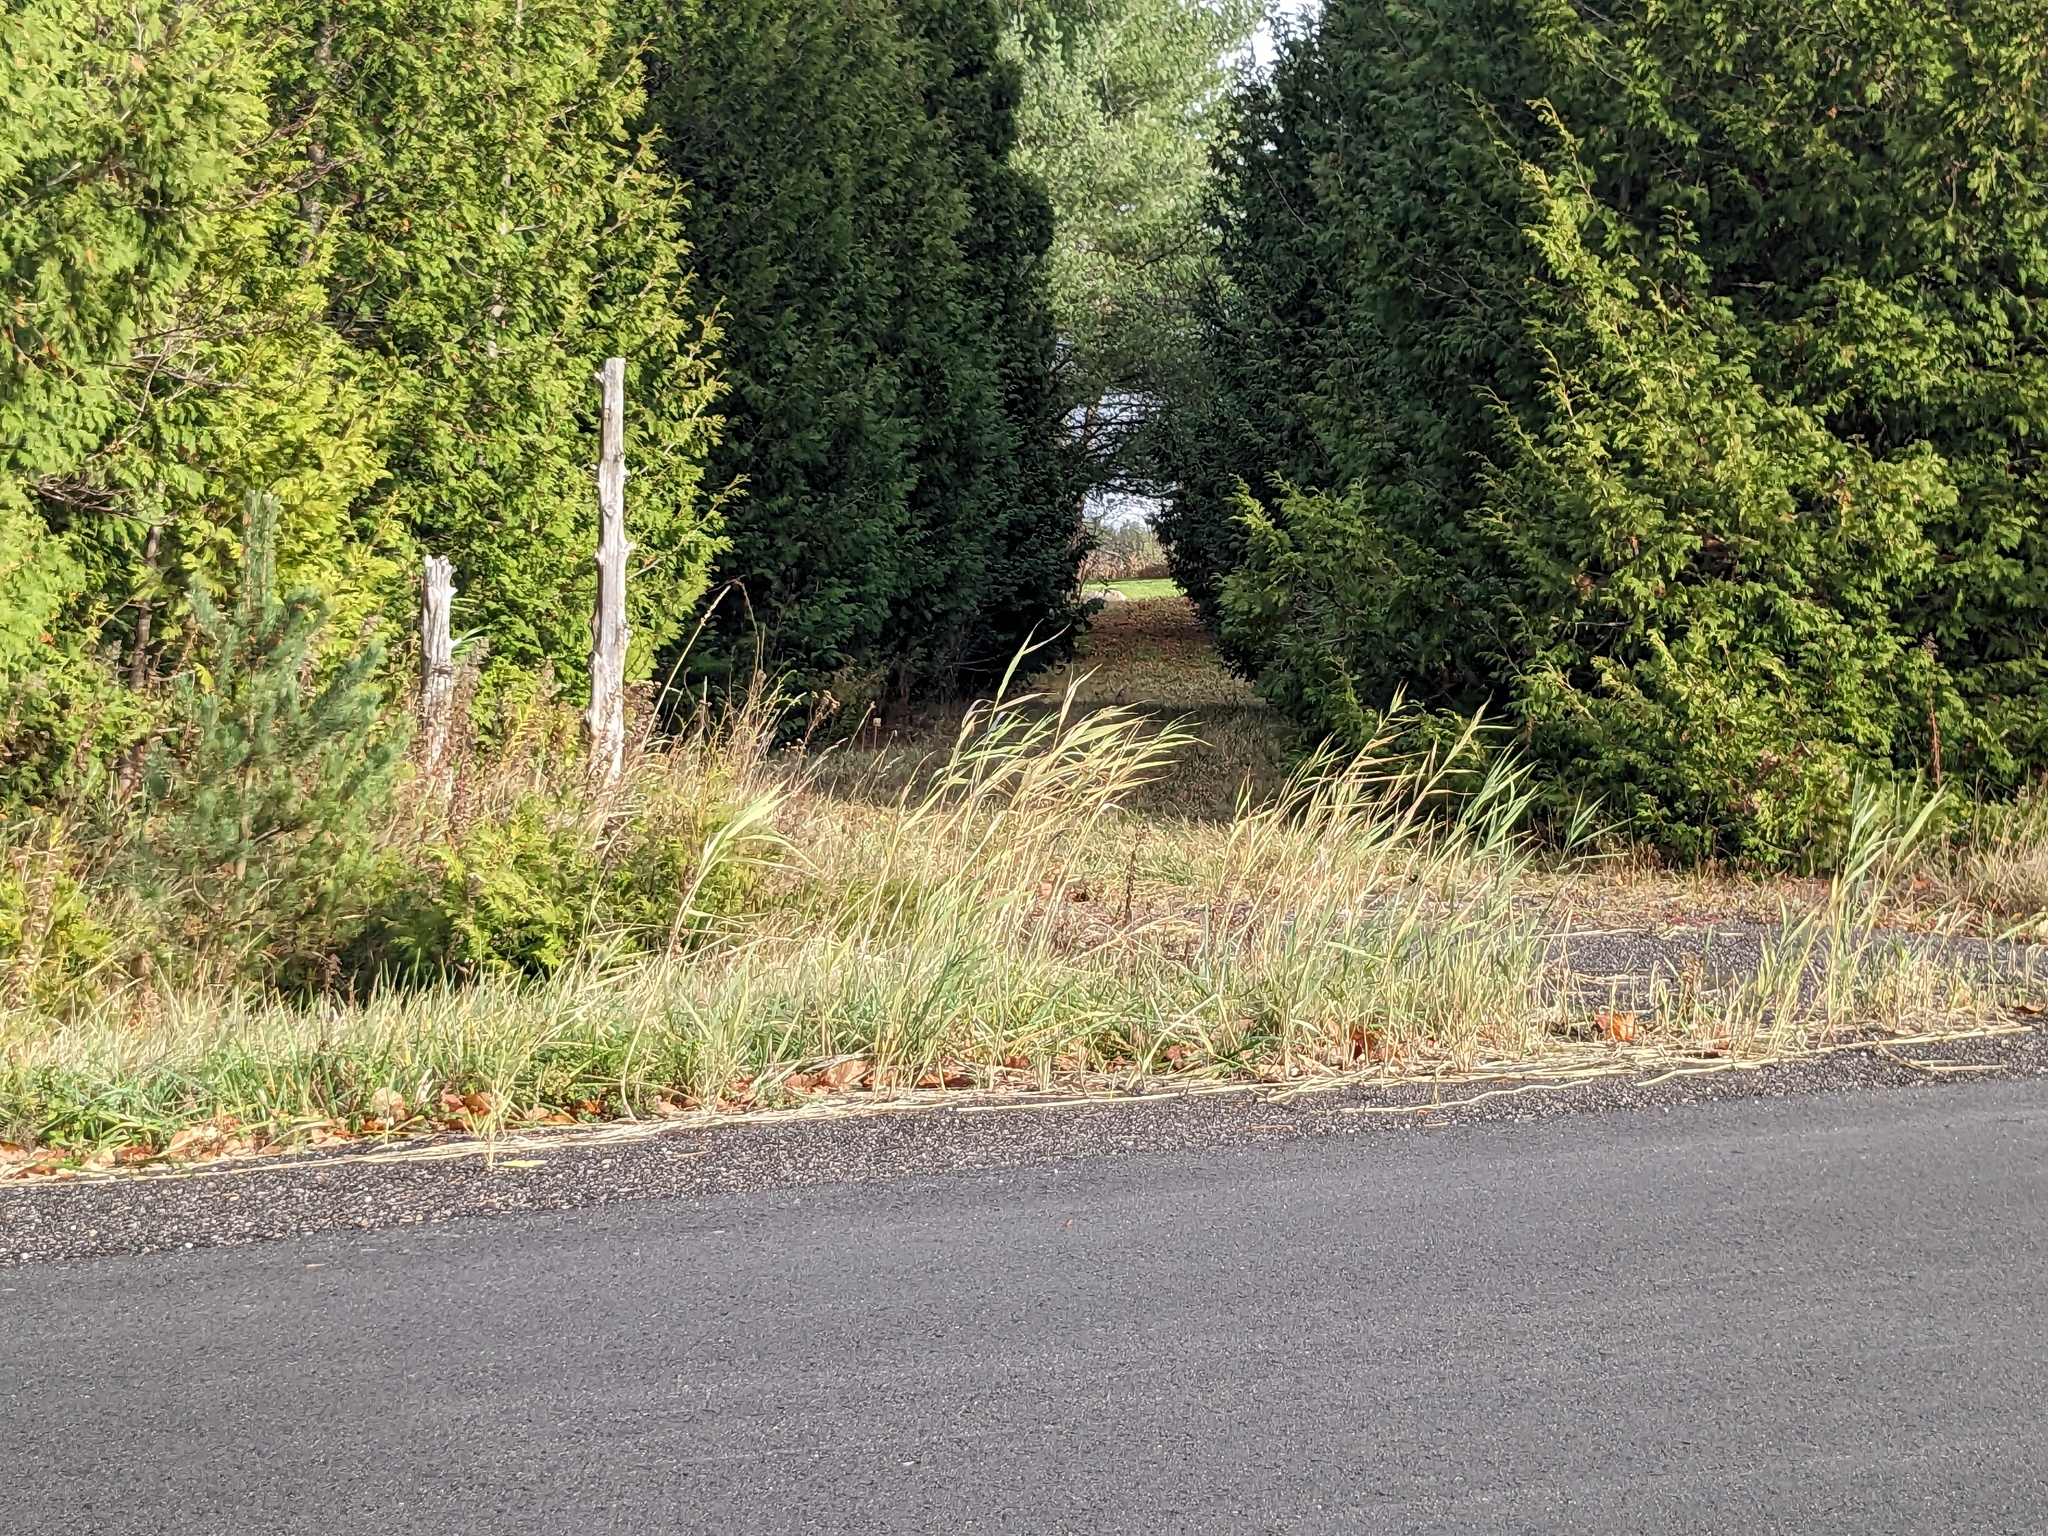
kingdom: Plantae
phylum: Tracheophyta
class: Liliopsida
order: Poales
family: Poaceae
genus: Phragmites
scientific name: Phragmites australis
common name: Common reed
